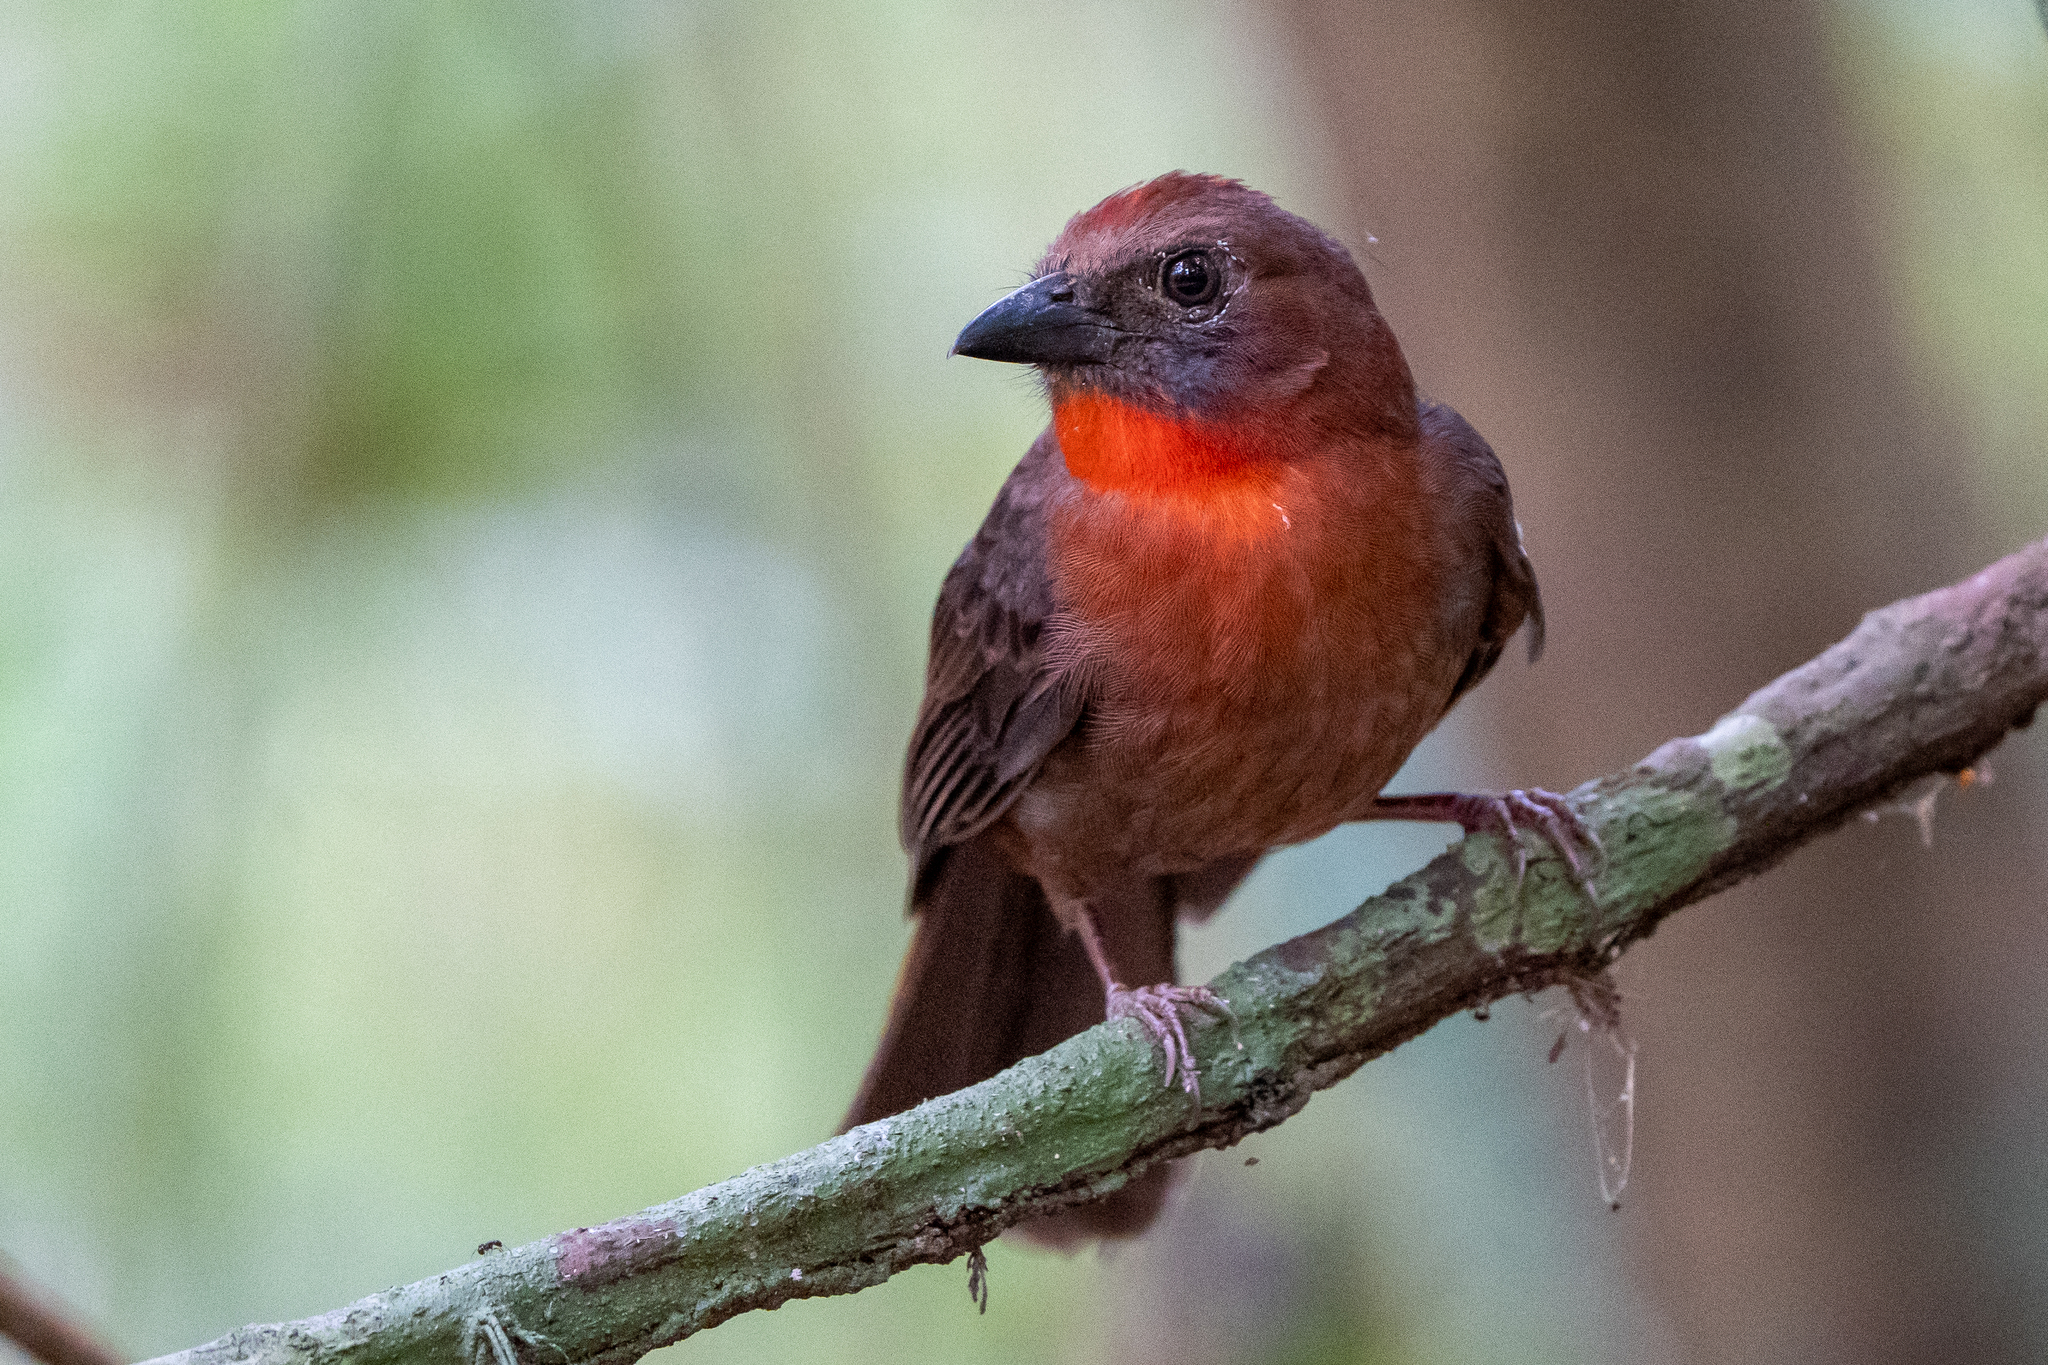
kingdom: Animalia
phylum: Chordata
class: Aves
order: Passeriformes
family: Cardinalidae
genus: Habia
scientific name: Habia fuscicauda
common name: Red-throated ant-tanager
